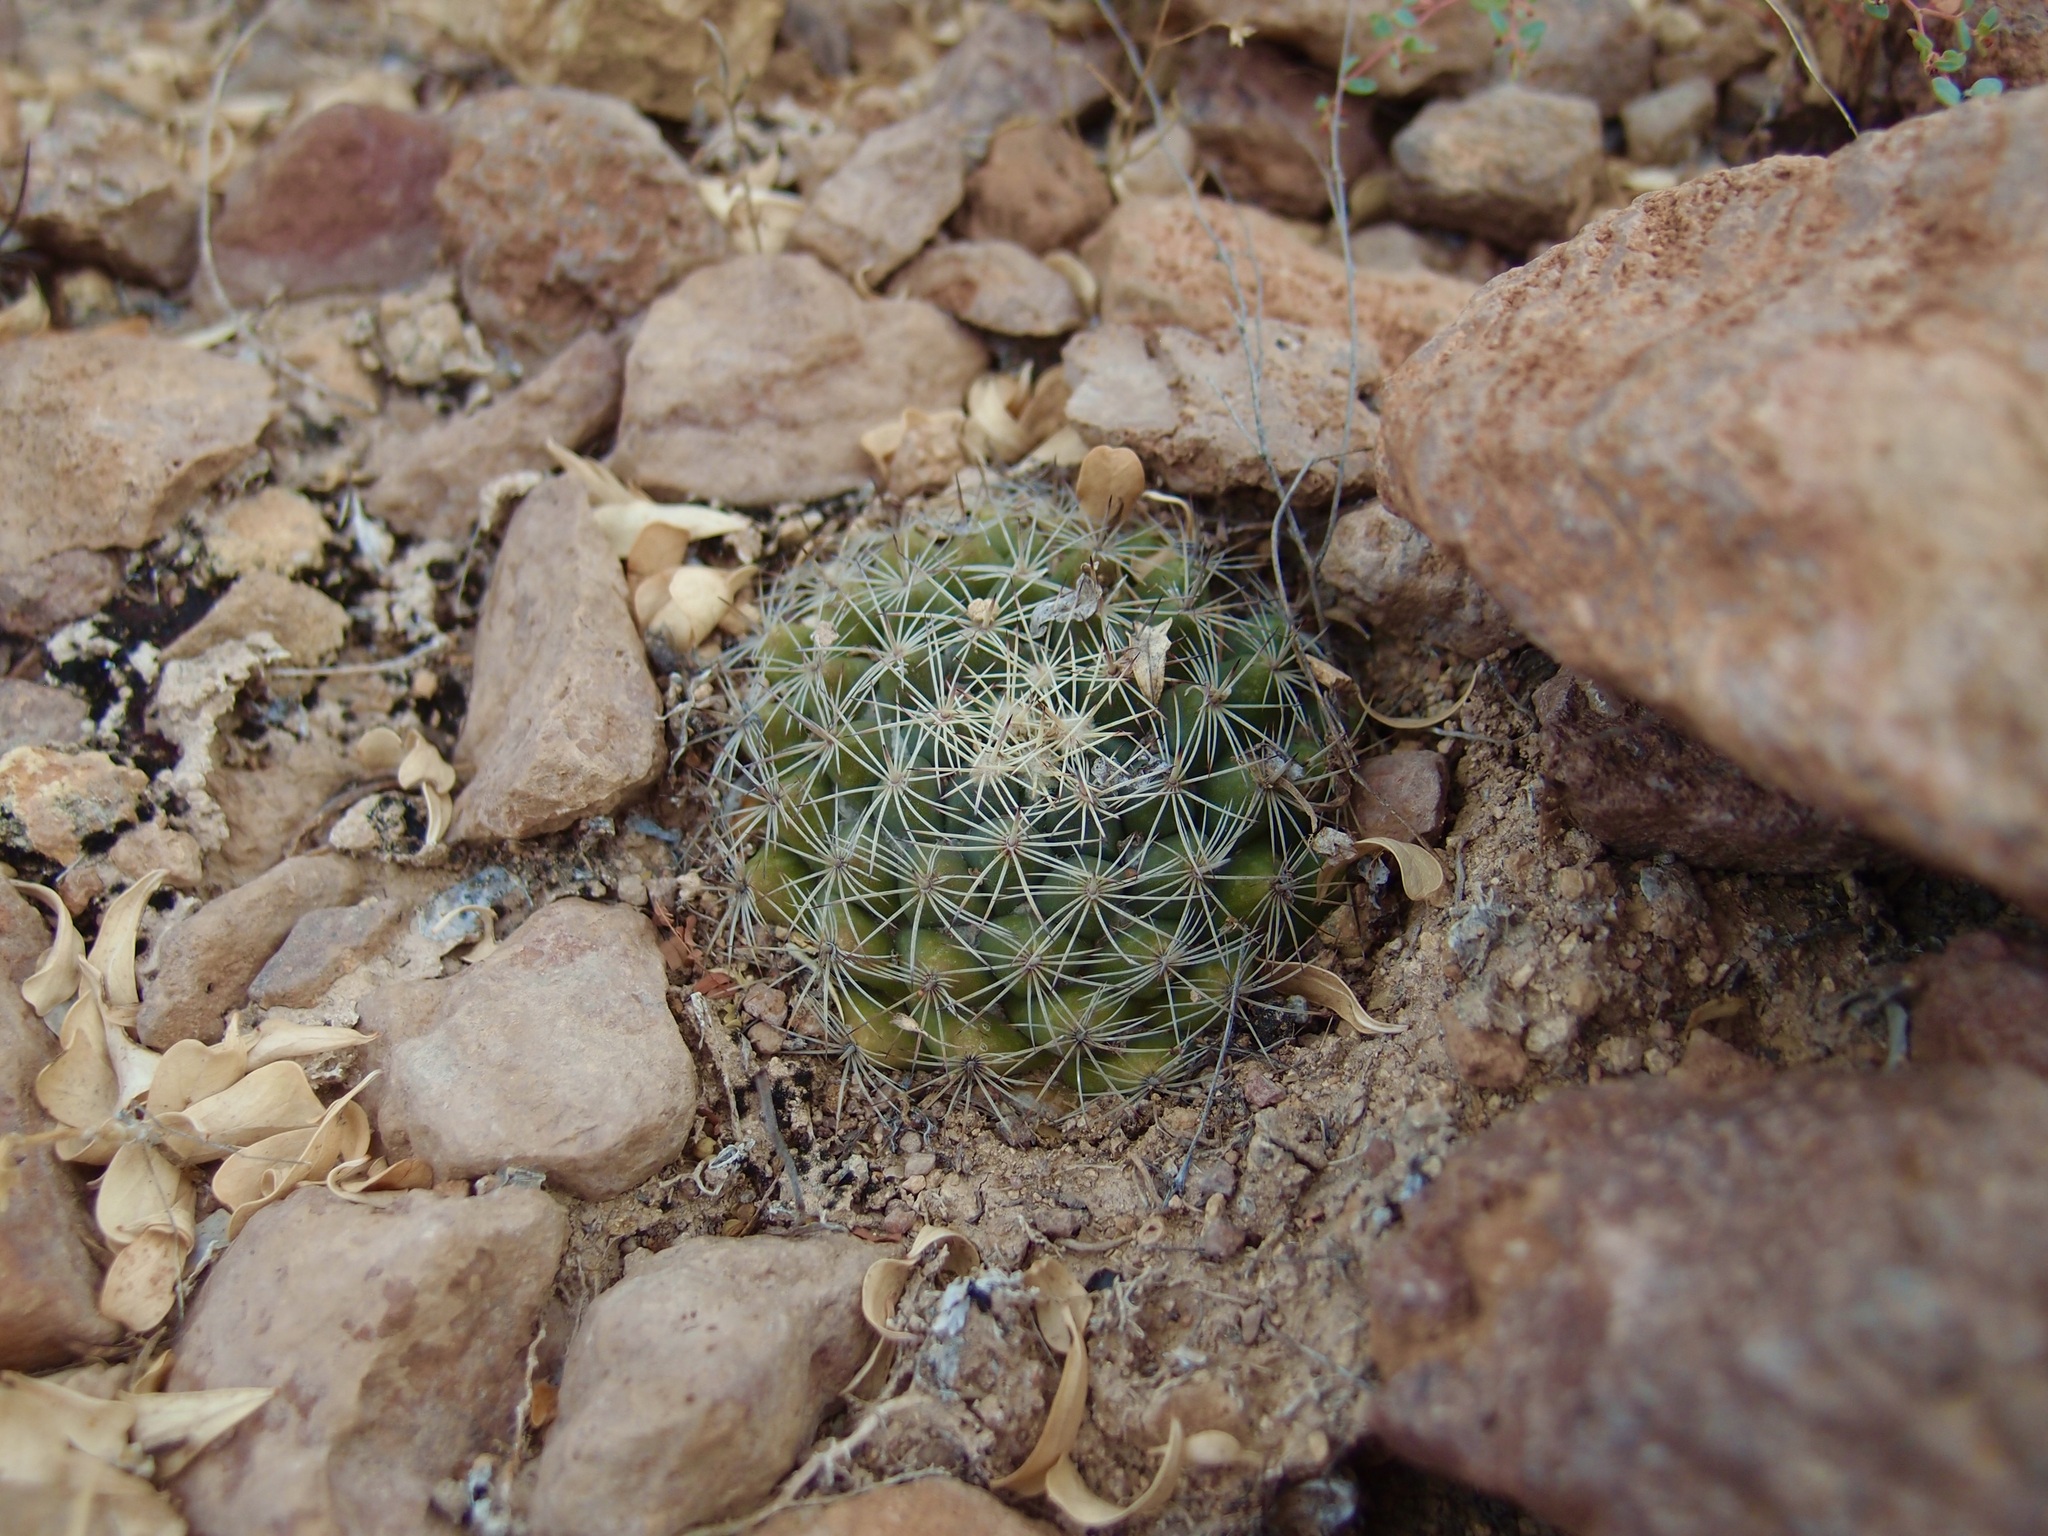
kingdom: Plantae
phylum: Tracheophyta
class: Magnoliopsida
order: Caryophyllales
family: Cactaceae
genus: Cochemiea
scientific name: Cochemiea sheldonii
